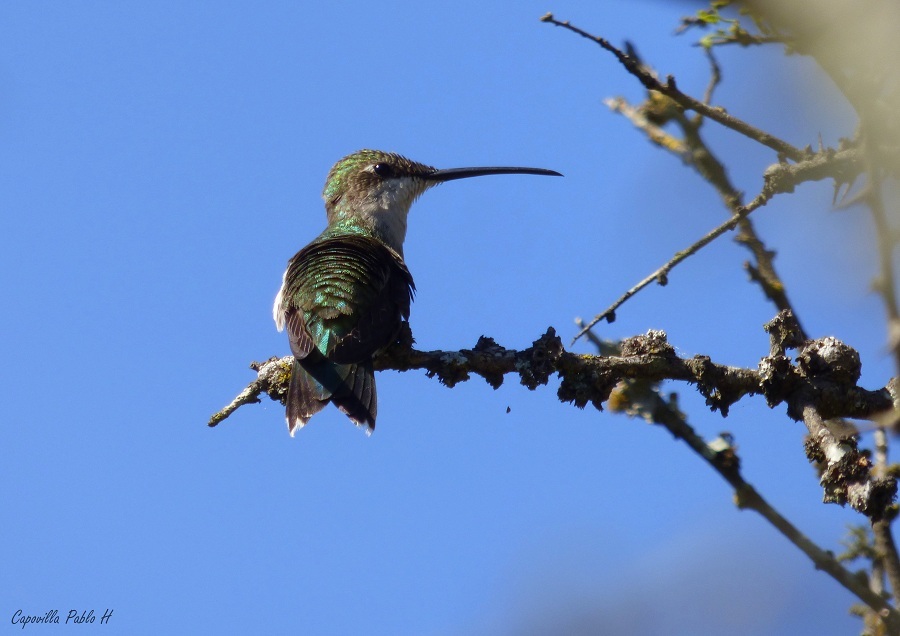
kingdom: Animalia
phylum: Chordata
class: Aves
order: Apodiformes
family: Trochilidae
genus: Heliomaster
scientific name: Heliomaster furcifer
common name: Blue-tufted starthroat
